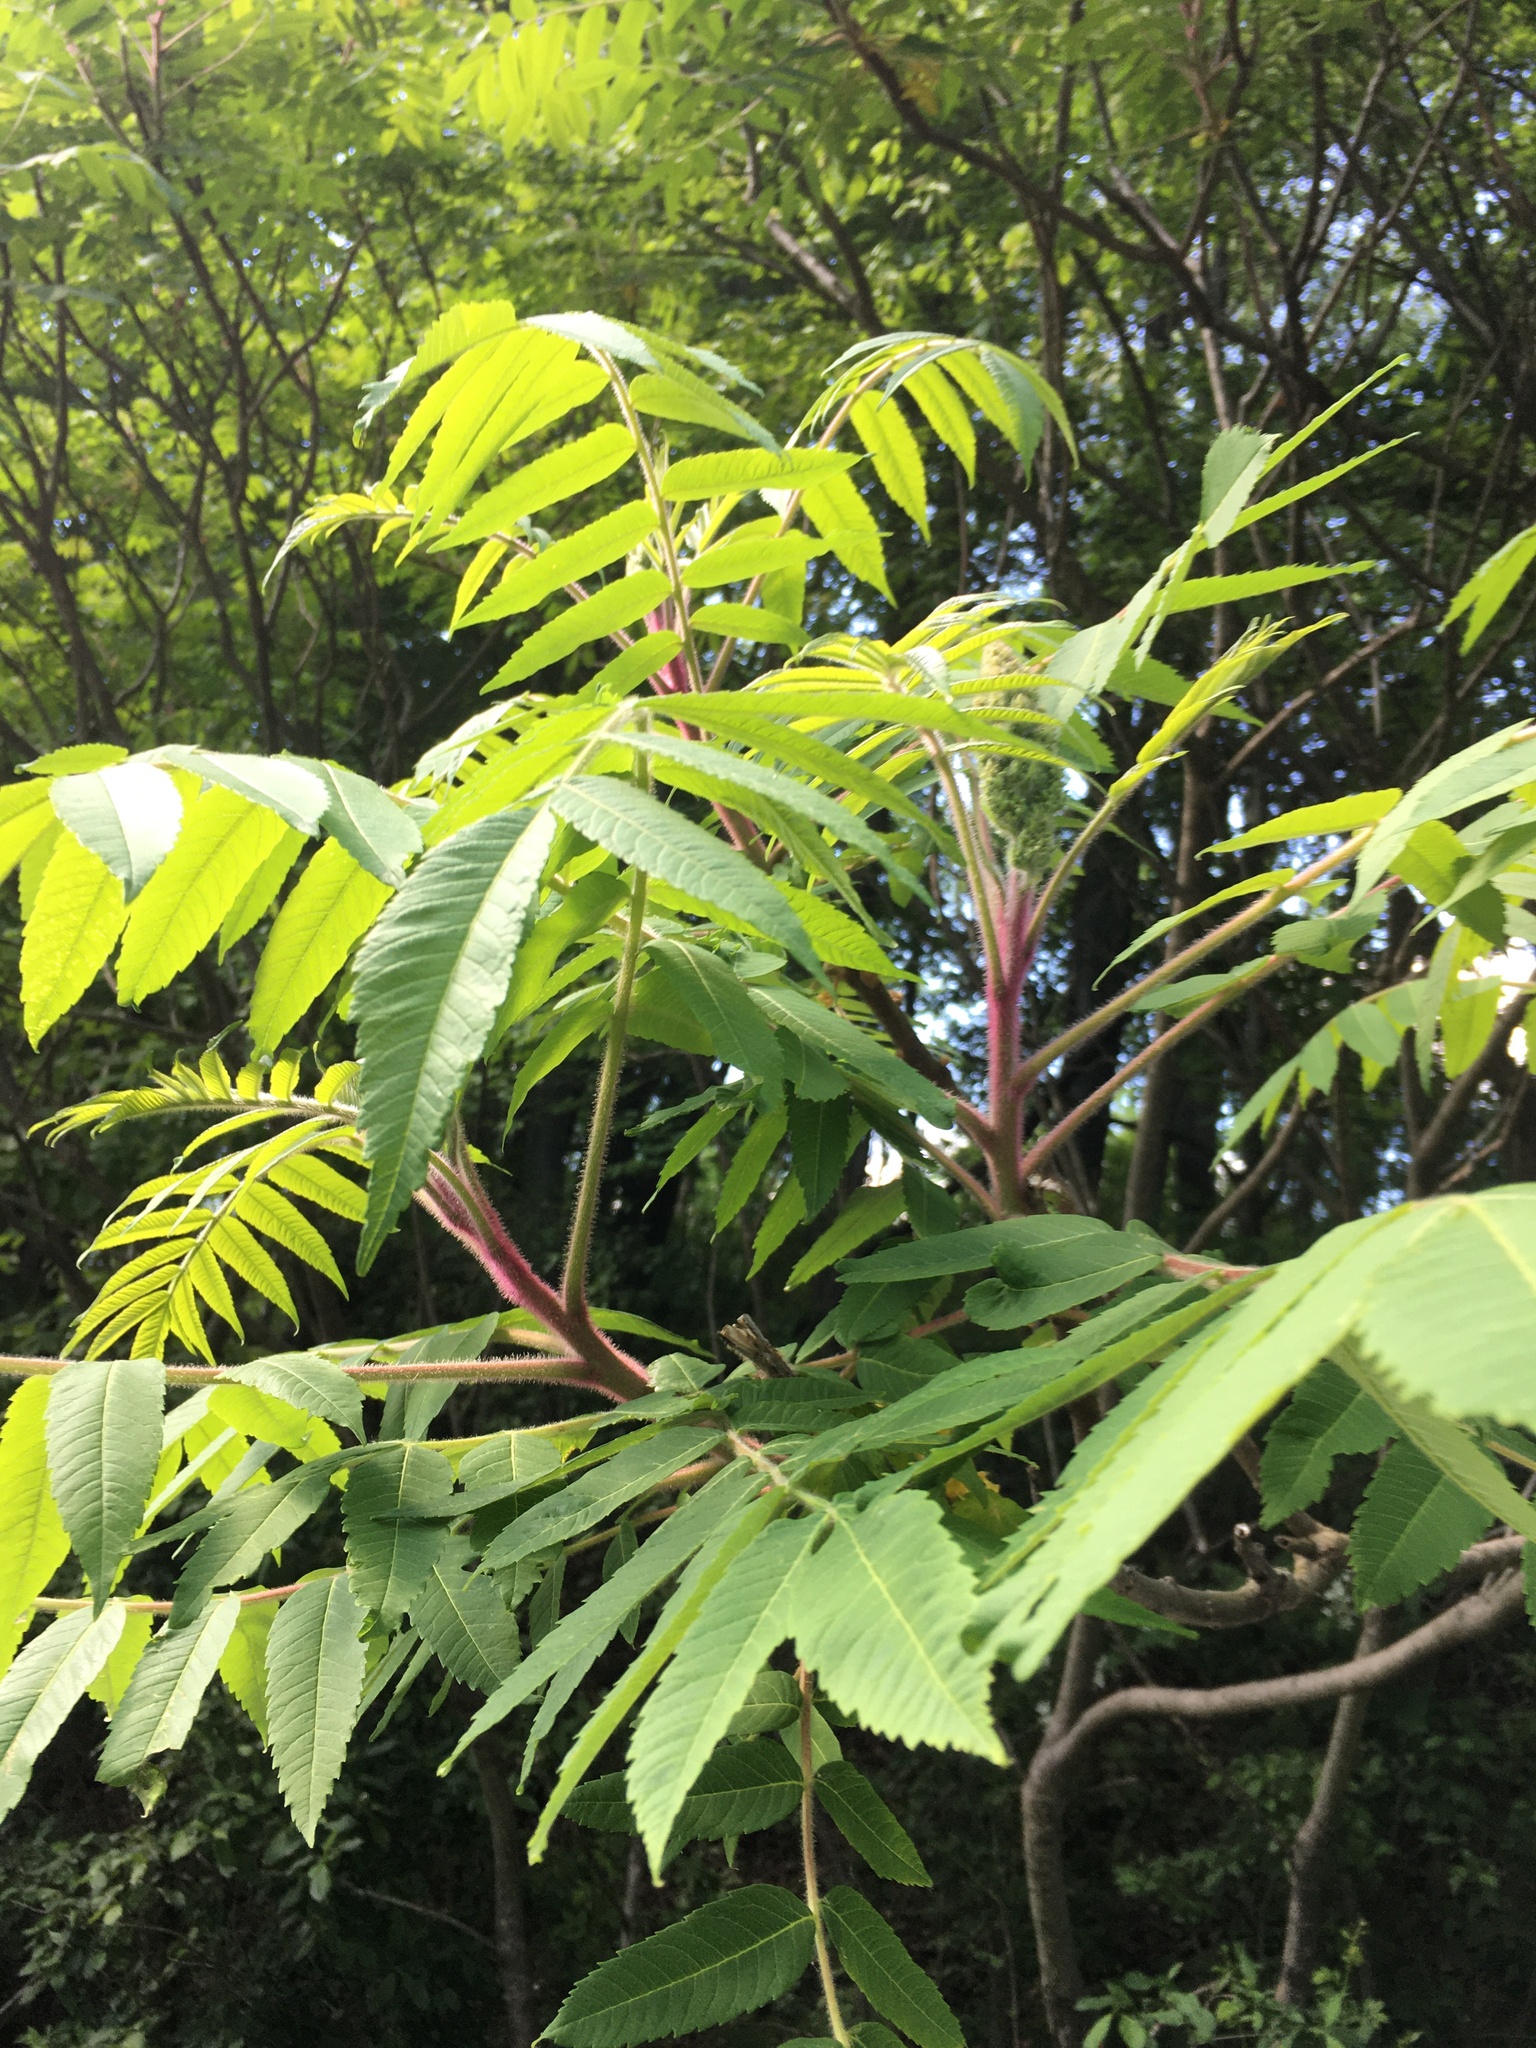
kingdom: Plantae
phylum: Tracheophyta
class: Magnoliopsida
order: Sapindales
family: Anacardiaceae
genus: Rhus
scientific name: Rhus typhina
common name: Staghorn sumac
